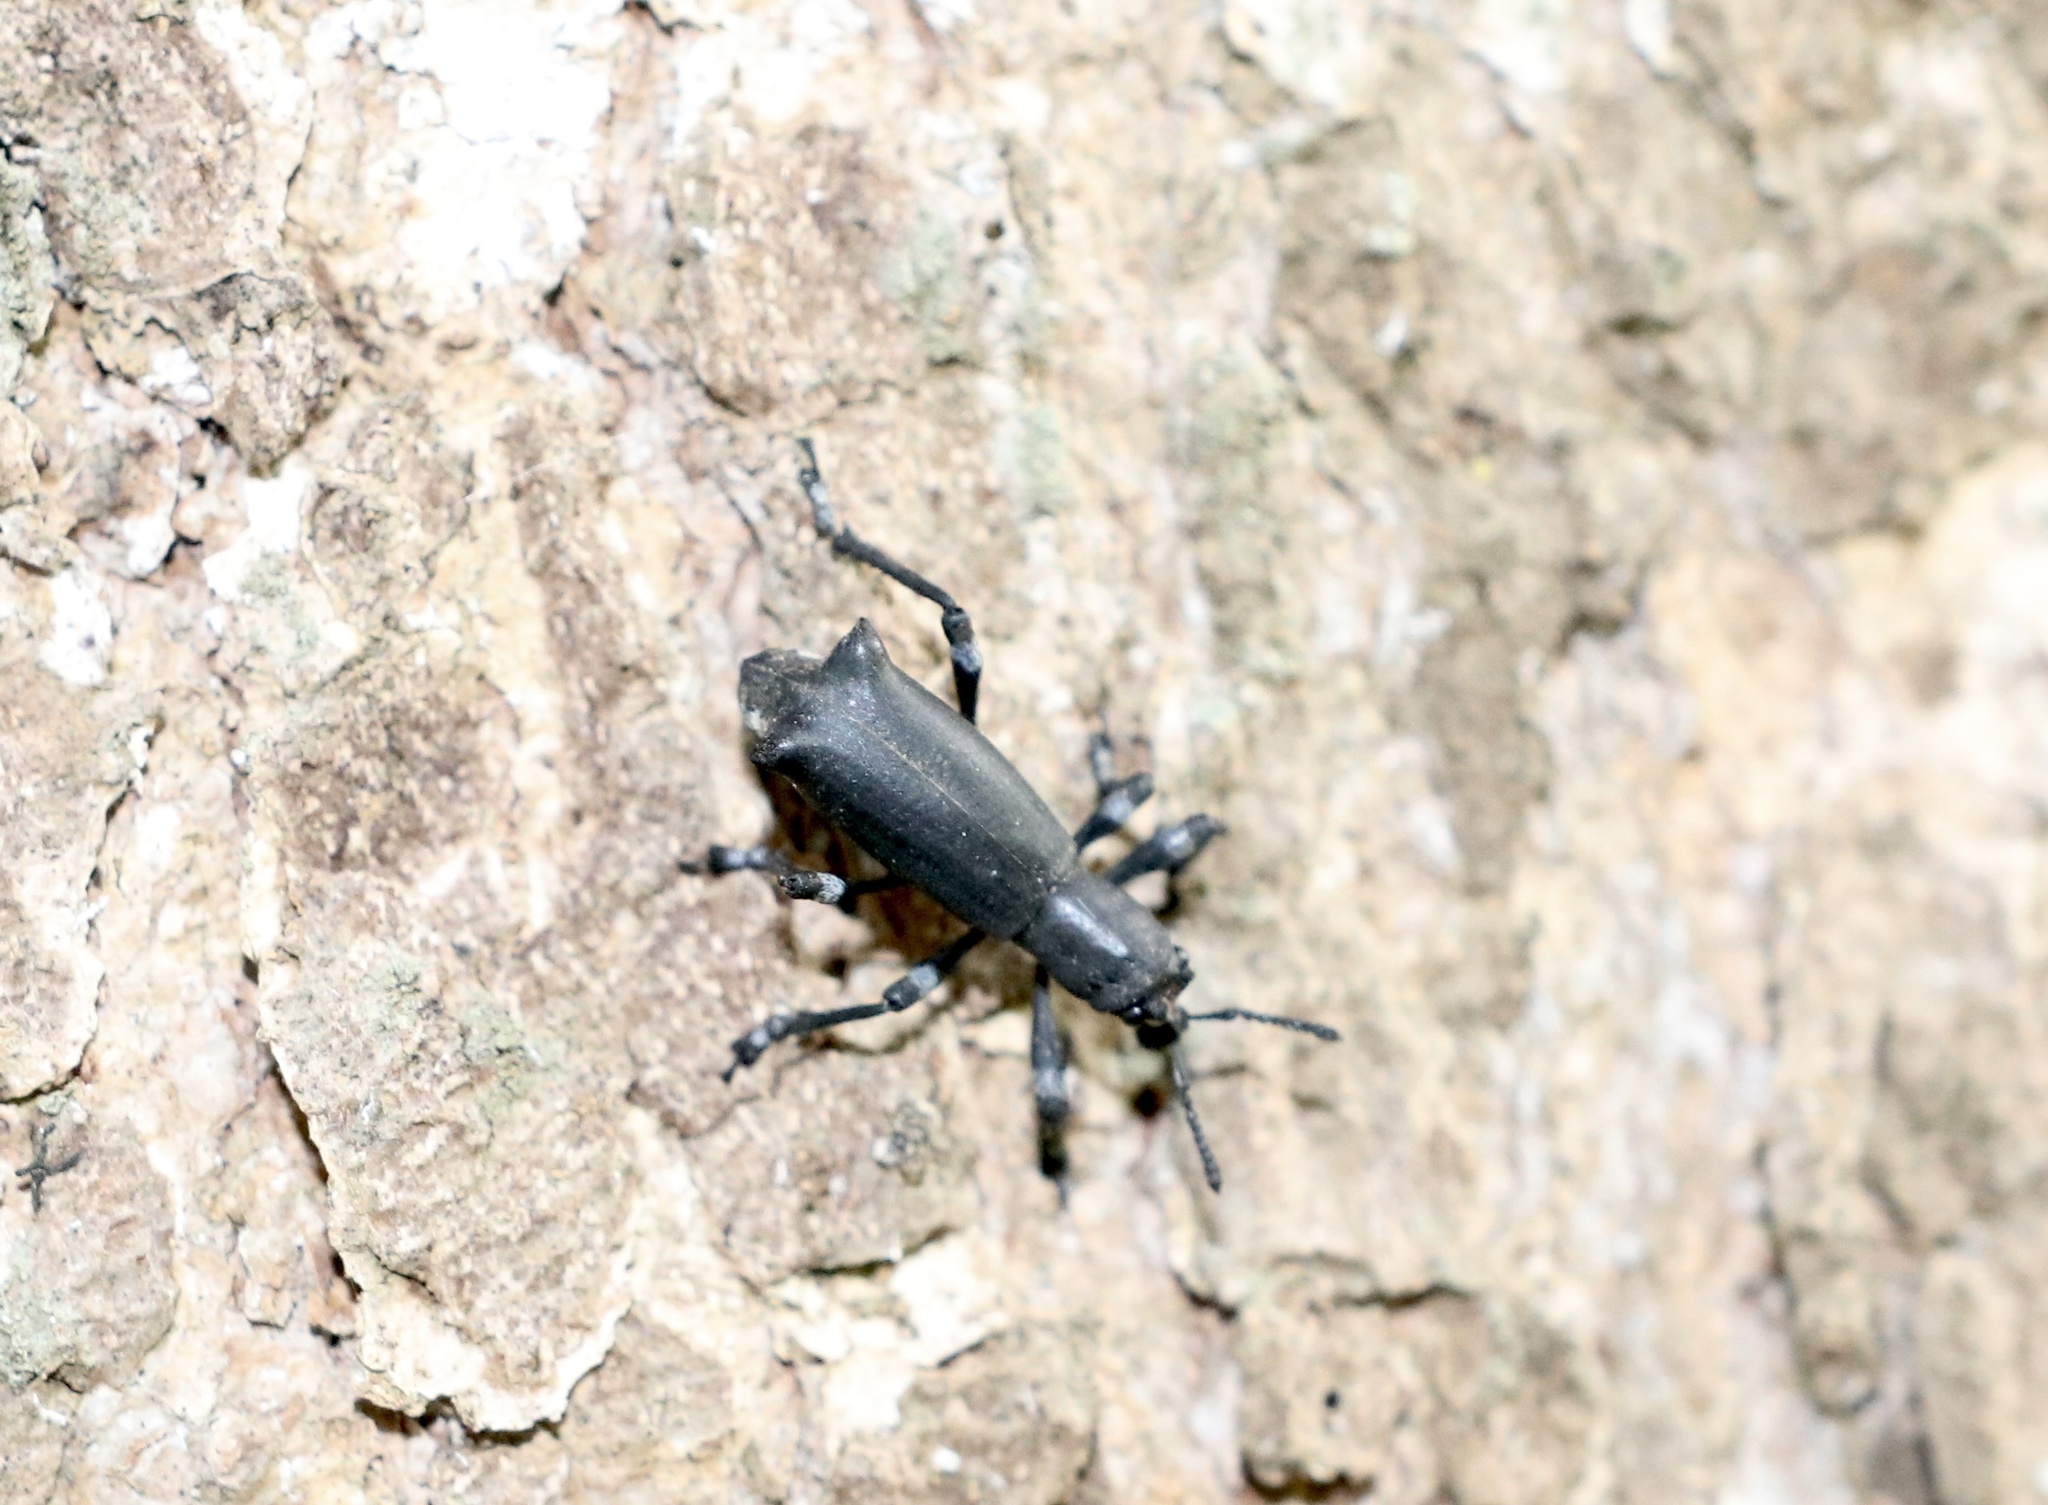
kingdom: Animalia
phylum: Arthropoda
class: Insecta
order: Coleoptera
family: Curculionidae
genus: Aegorhinus
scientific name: Aegorhinus
